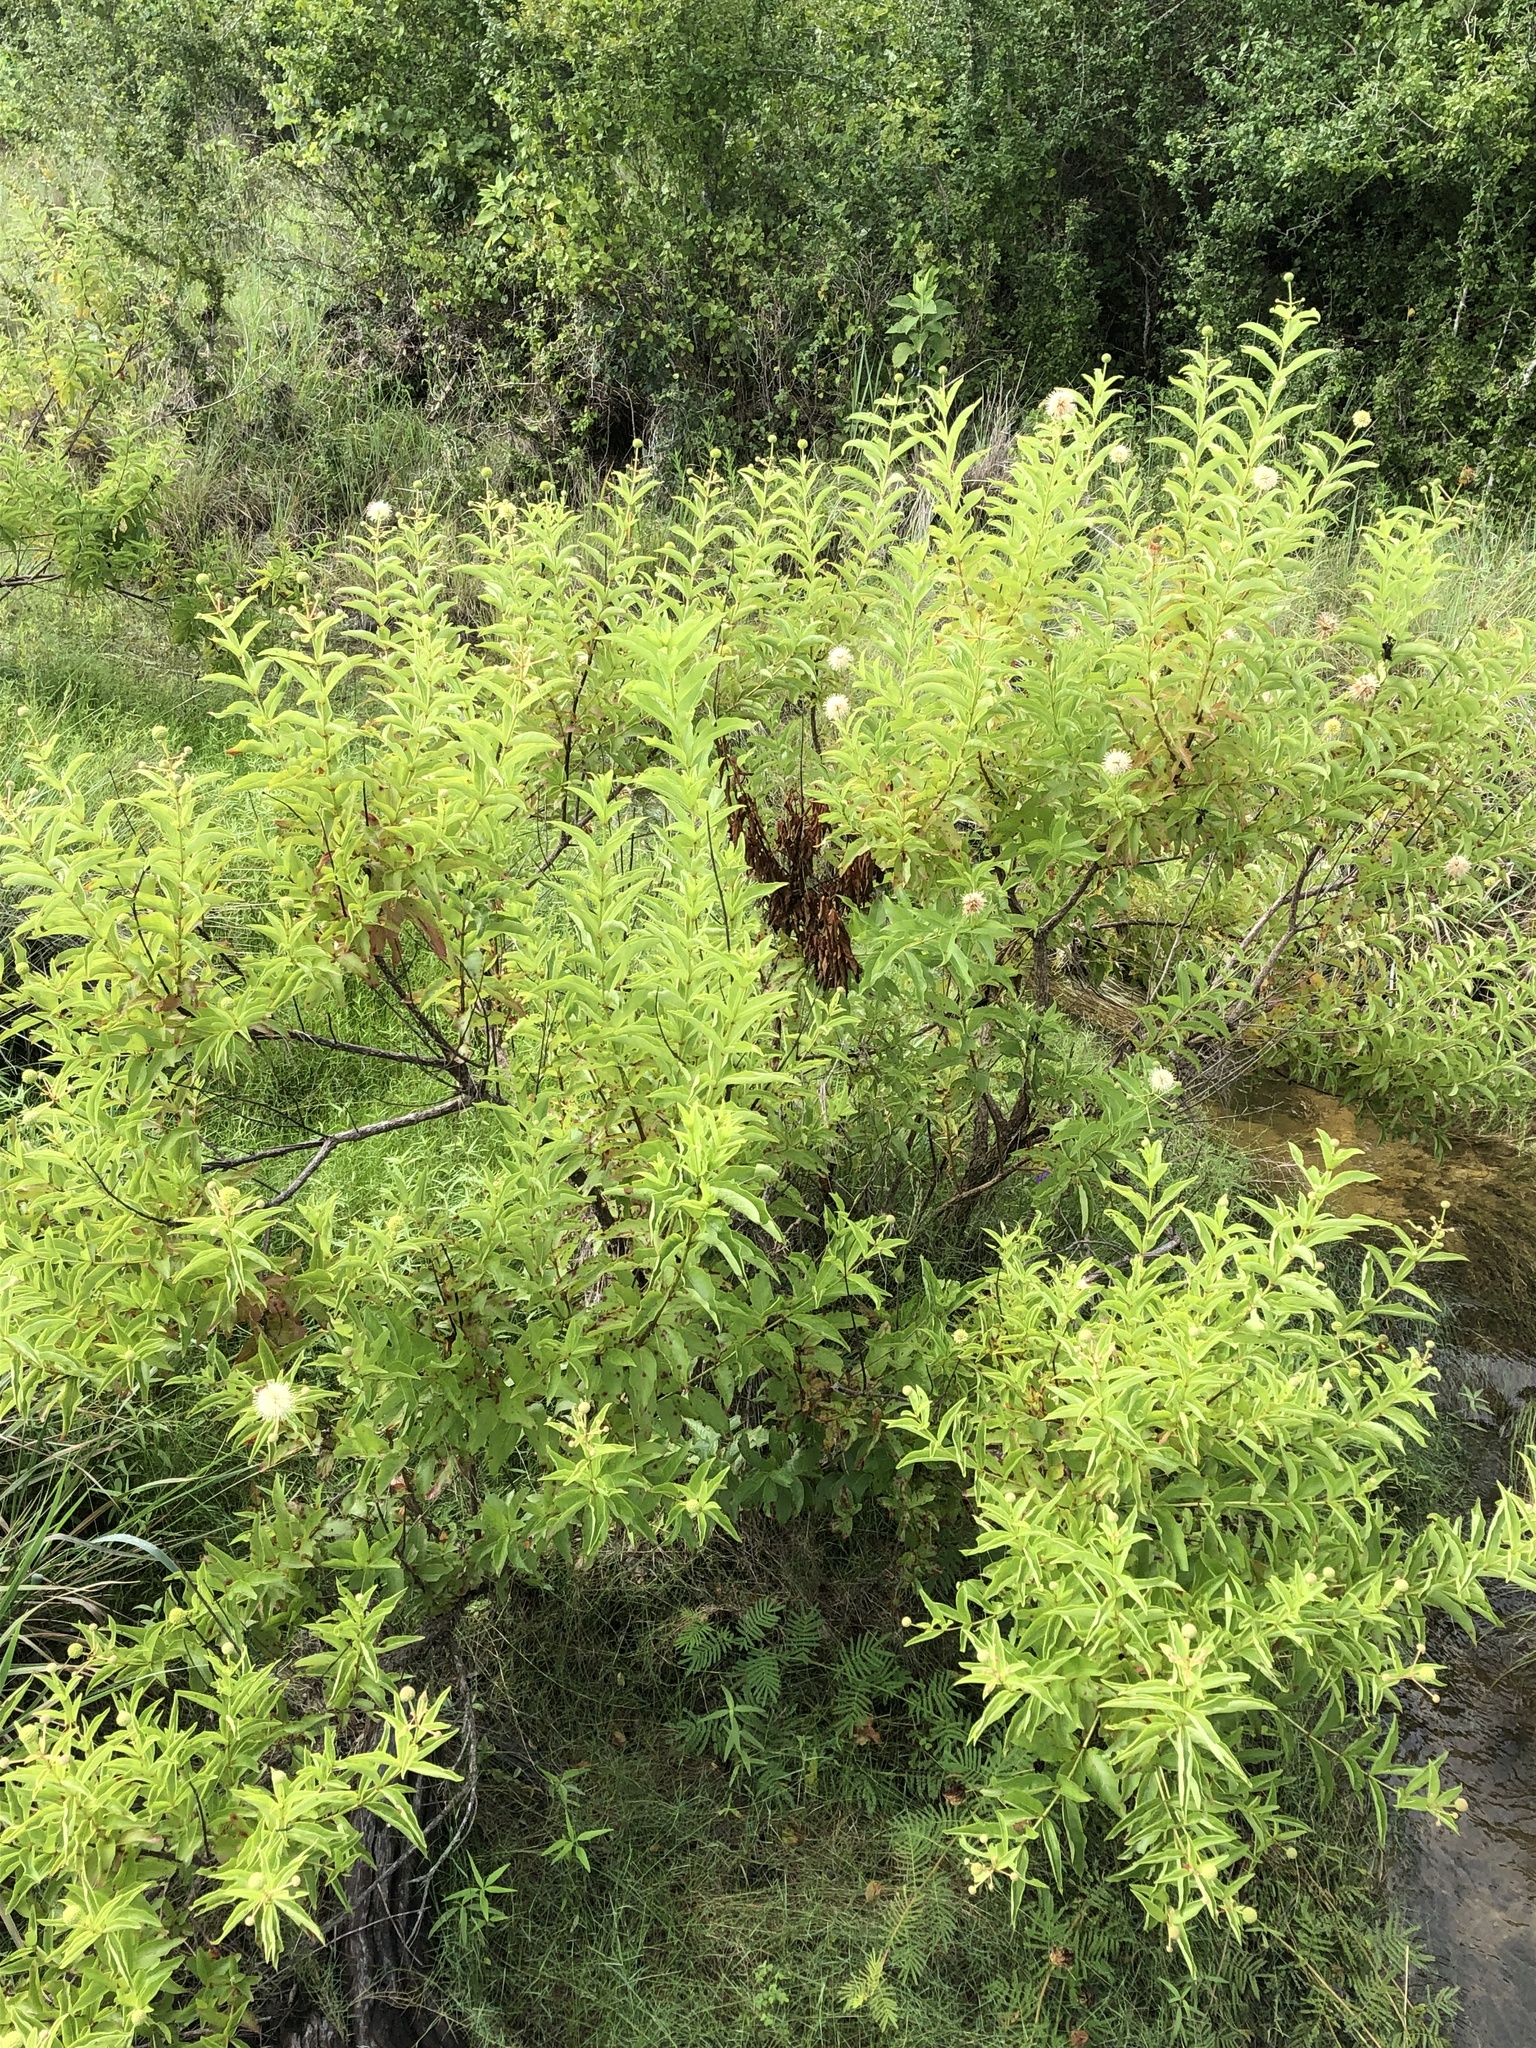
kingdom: Plantae
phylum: Tracheophyta
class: Magnoliopsida
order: Gentianales
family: Rubiaceae
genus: Cephalanthus
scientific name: Cephalanthus occidentalis
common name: Button-willow
